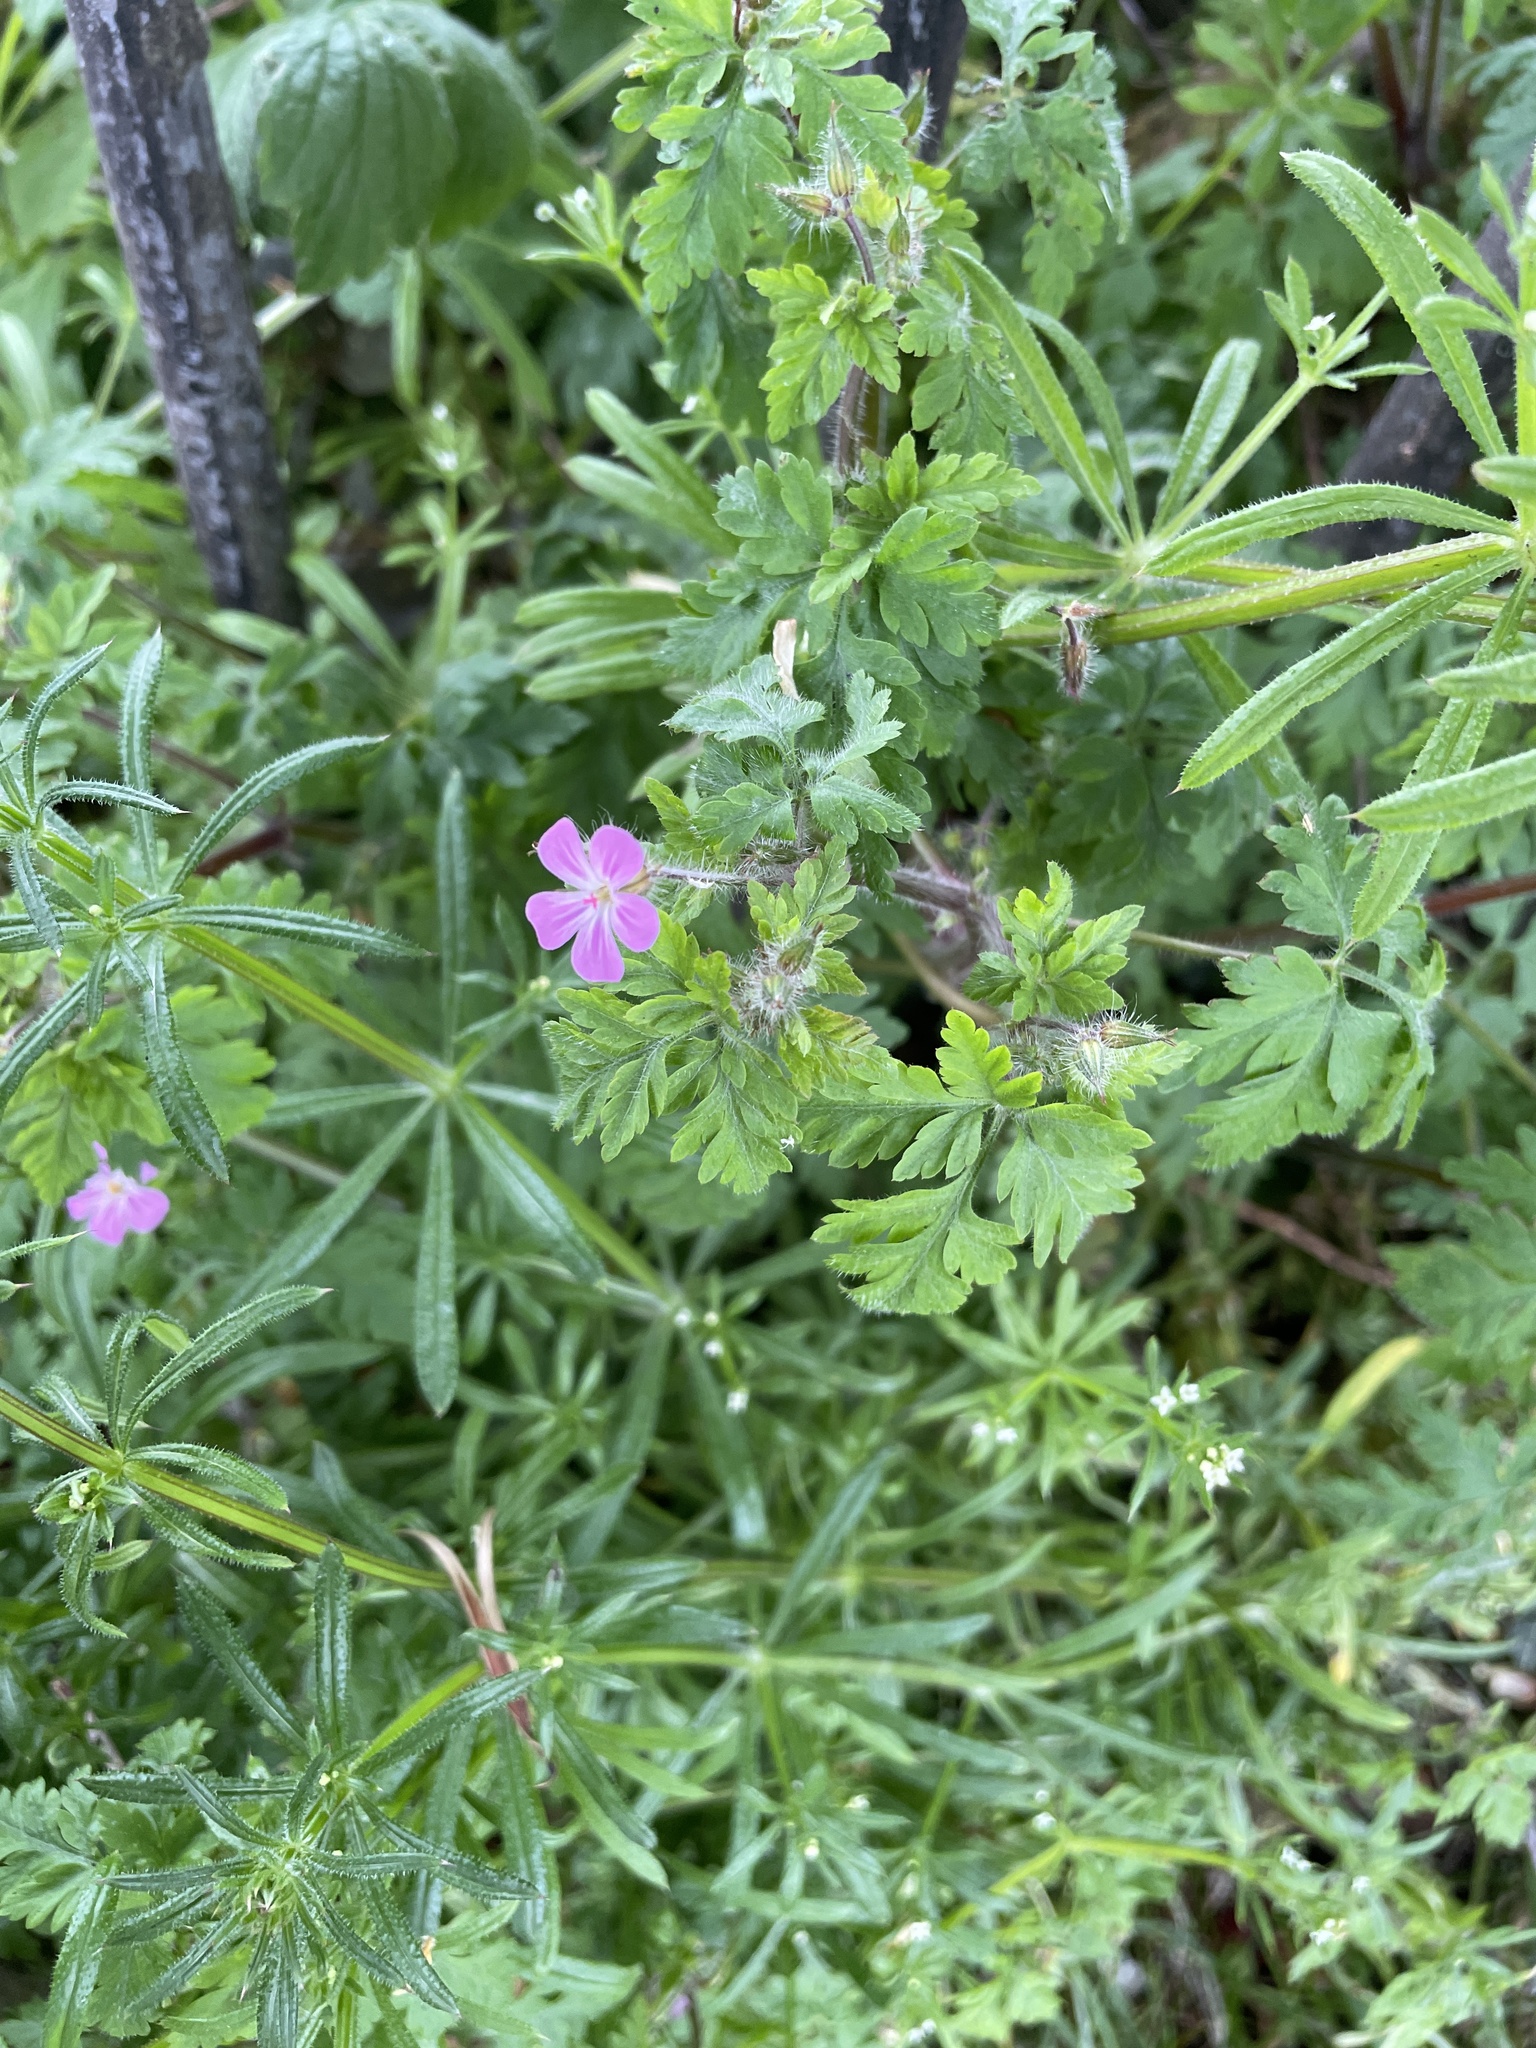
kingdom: Plantae
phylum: Tracheophyta
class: Magnoliopsida
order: Geraniales
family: Geraniaceae
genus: Geranium
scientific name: Geranium robertianum
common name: Herb-robert
